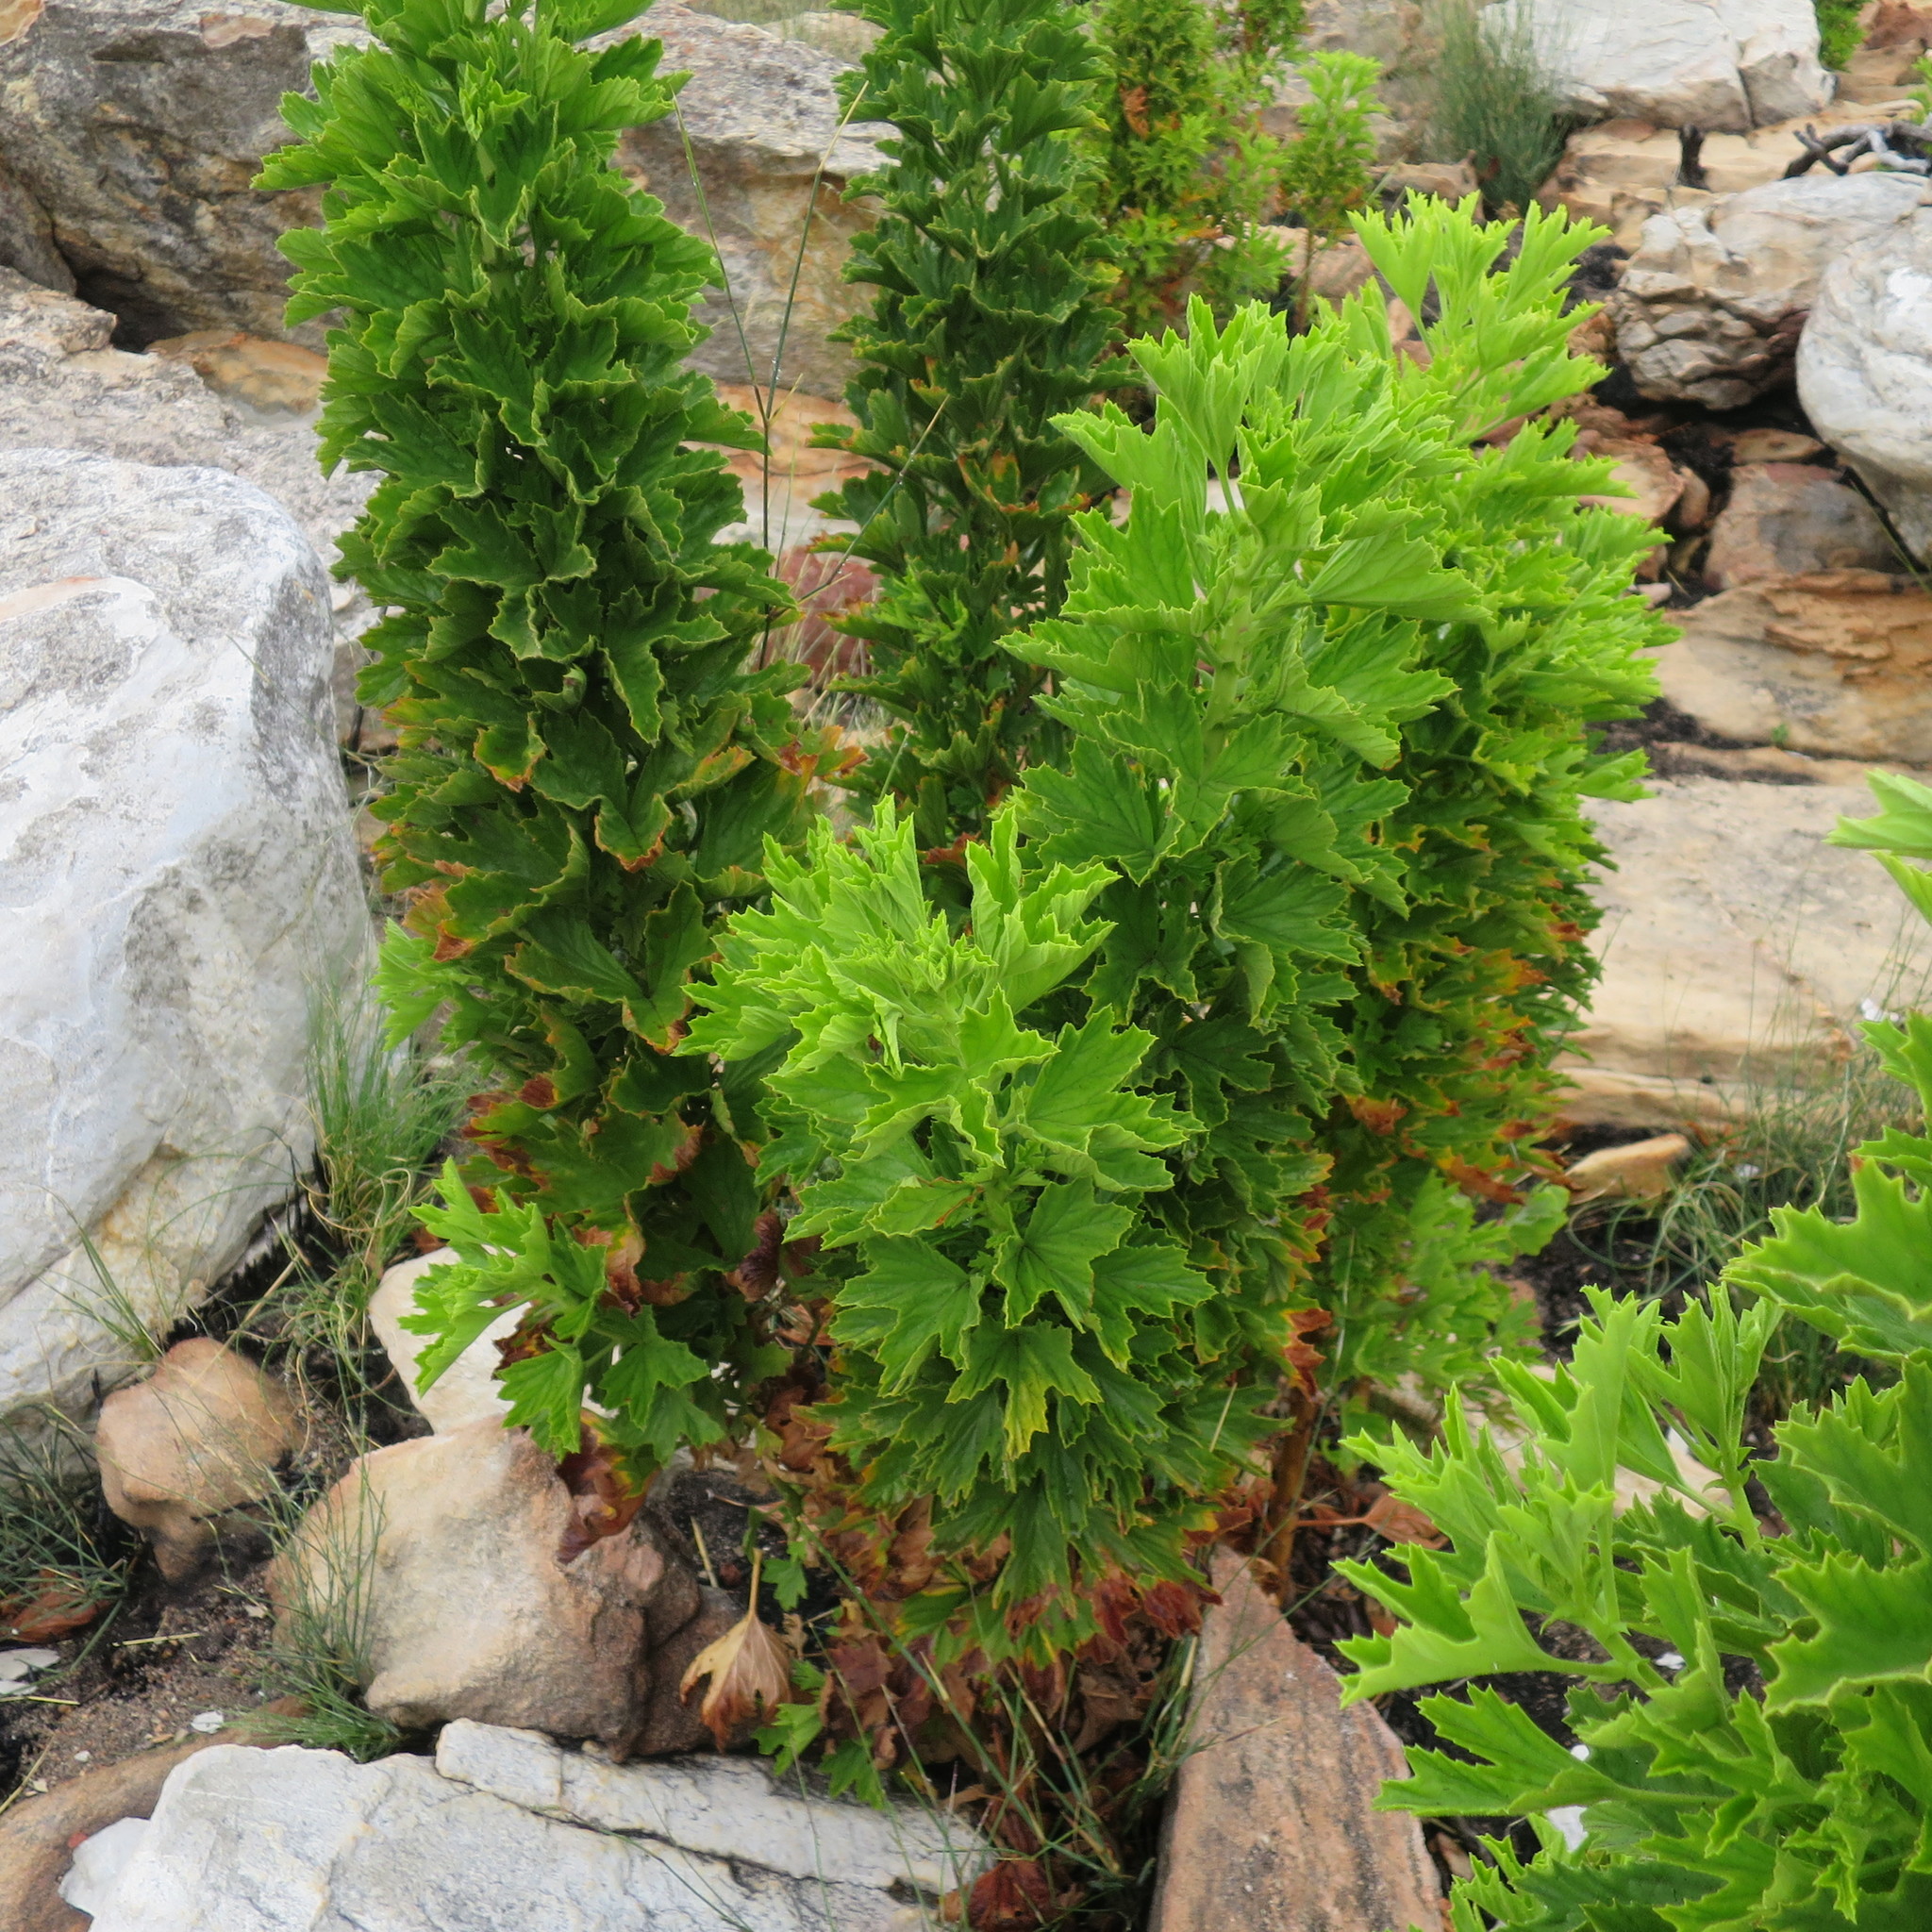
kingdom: Plantae
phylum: Tracheophyta
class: Magnoliopsida
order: Geraniales
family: Geraniaceae
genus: Pelargonium
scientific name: Pelargonium scabrum
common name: Apricot geranium
